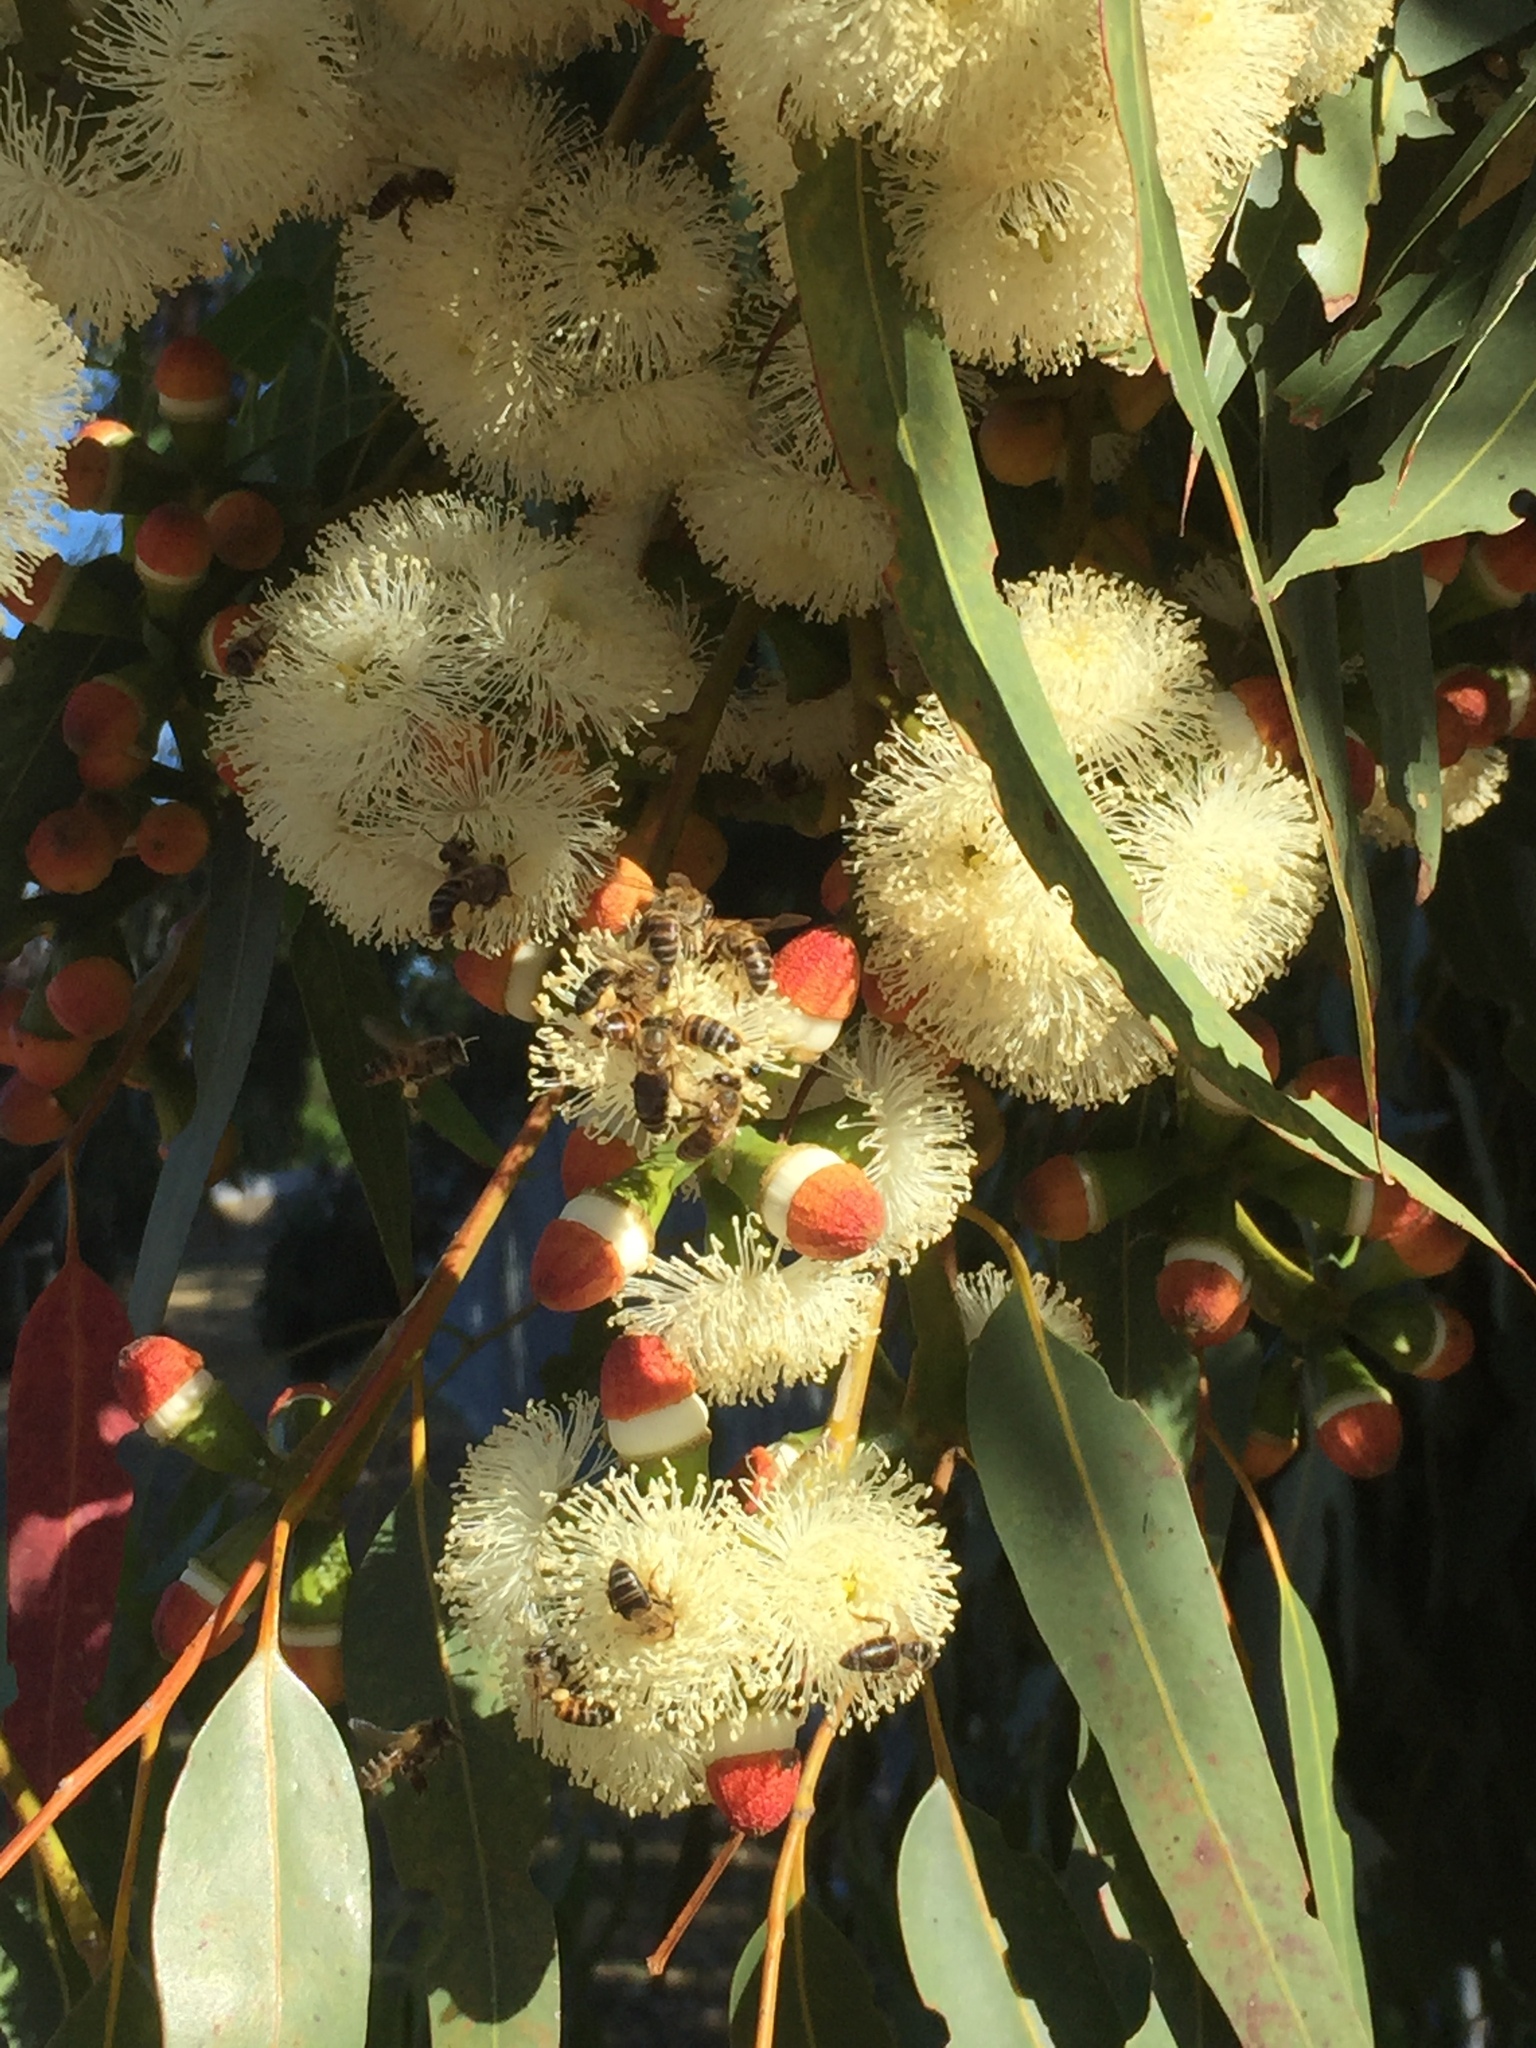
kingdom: Animalia
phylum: Arthropoda
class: Insecta
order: Hymenoptera
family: Apidae
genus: Apis
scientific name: Apis mellifera
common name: Honey bee
